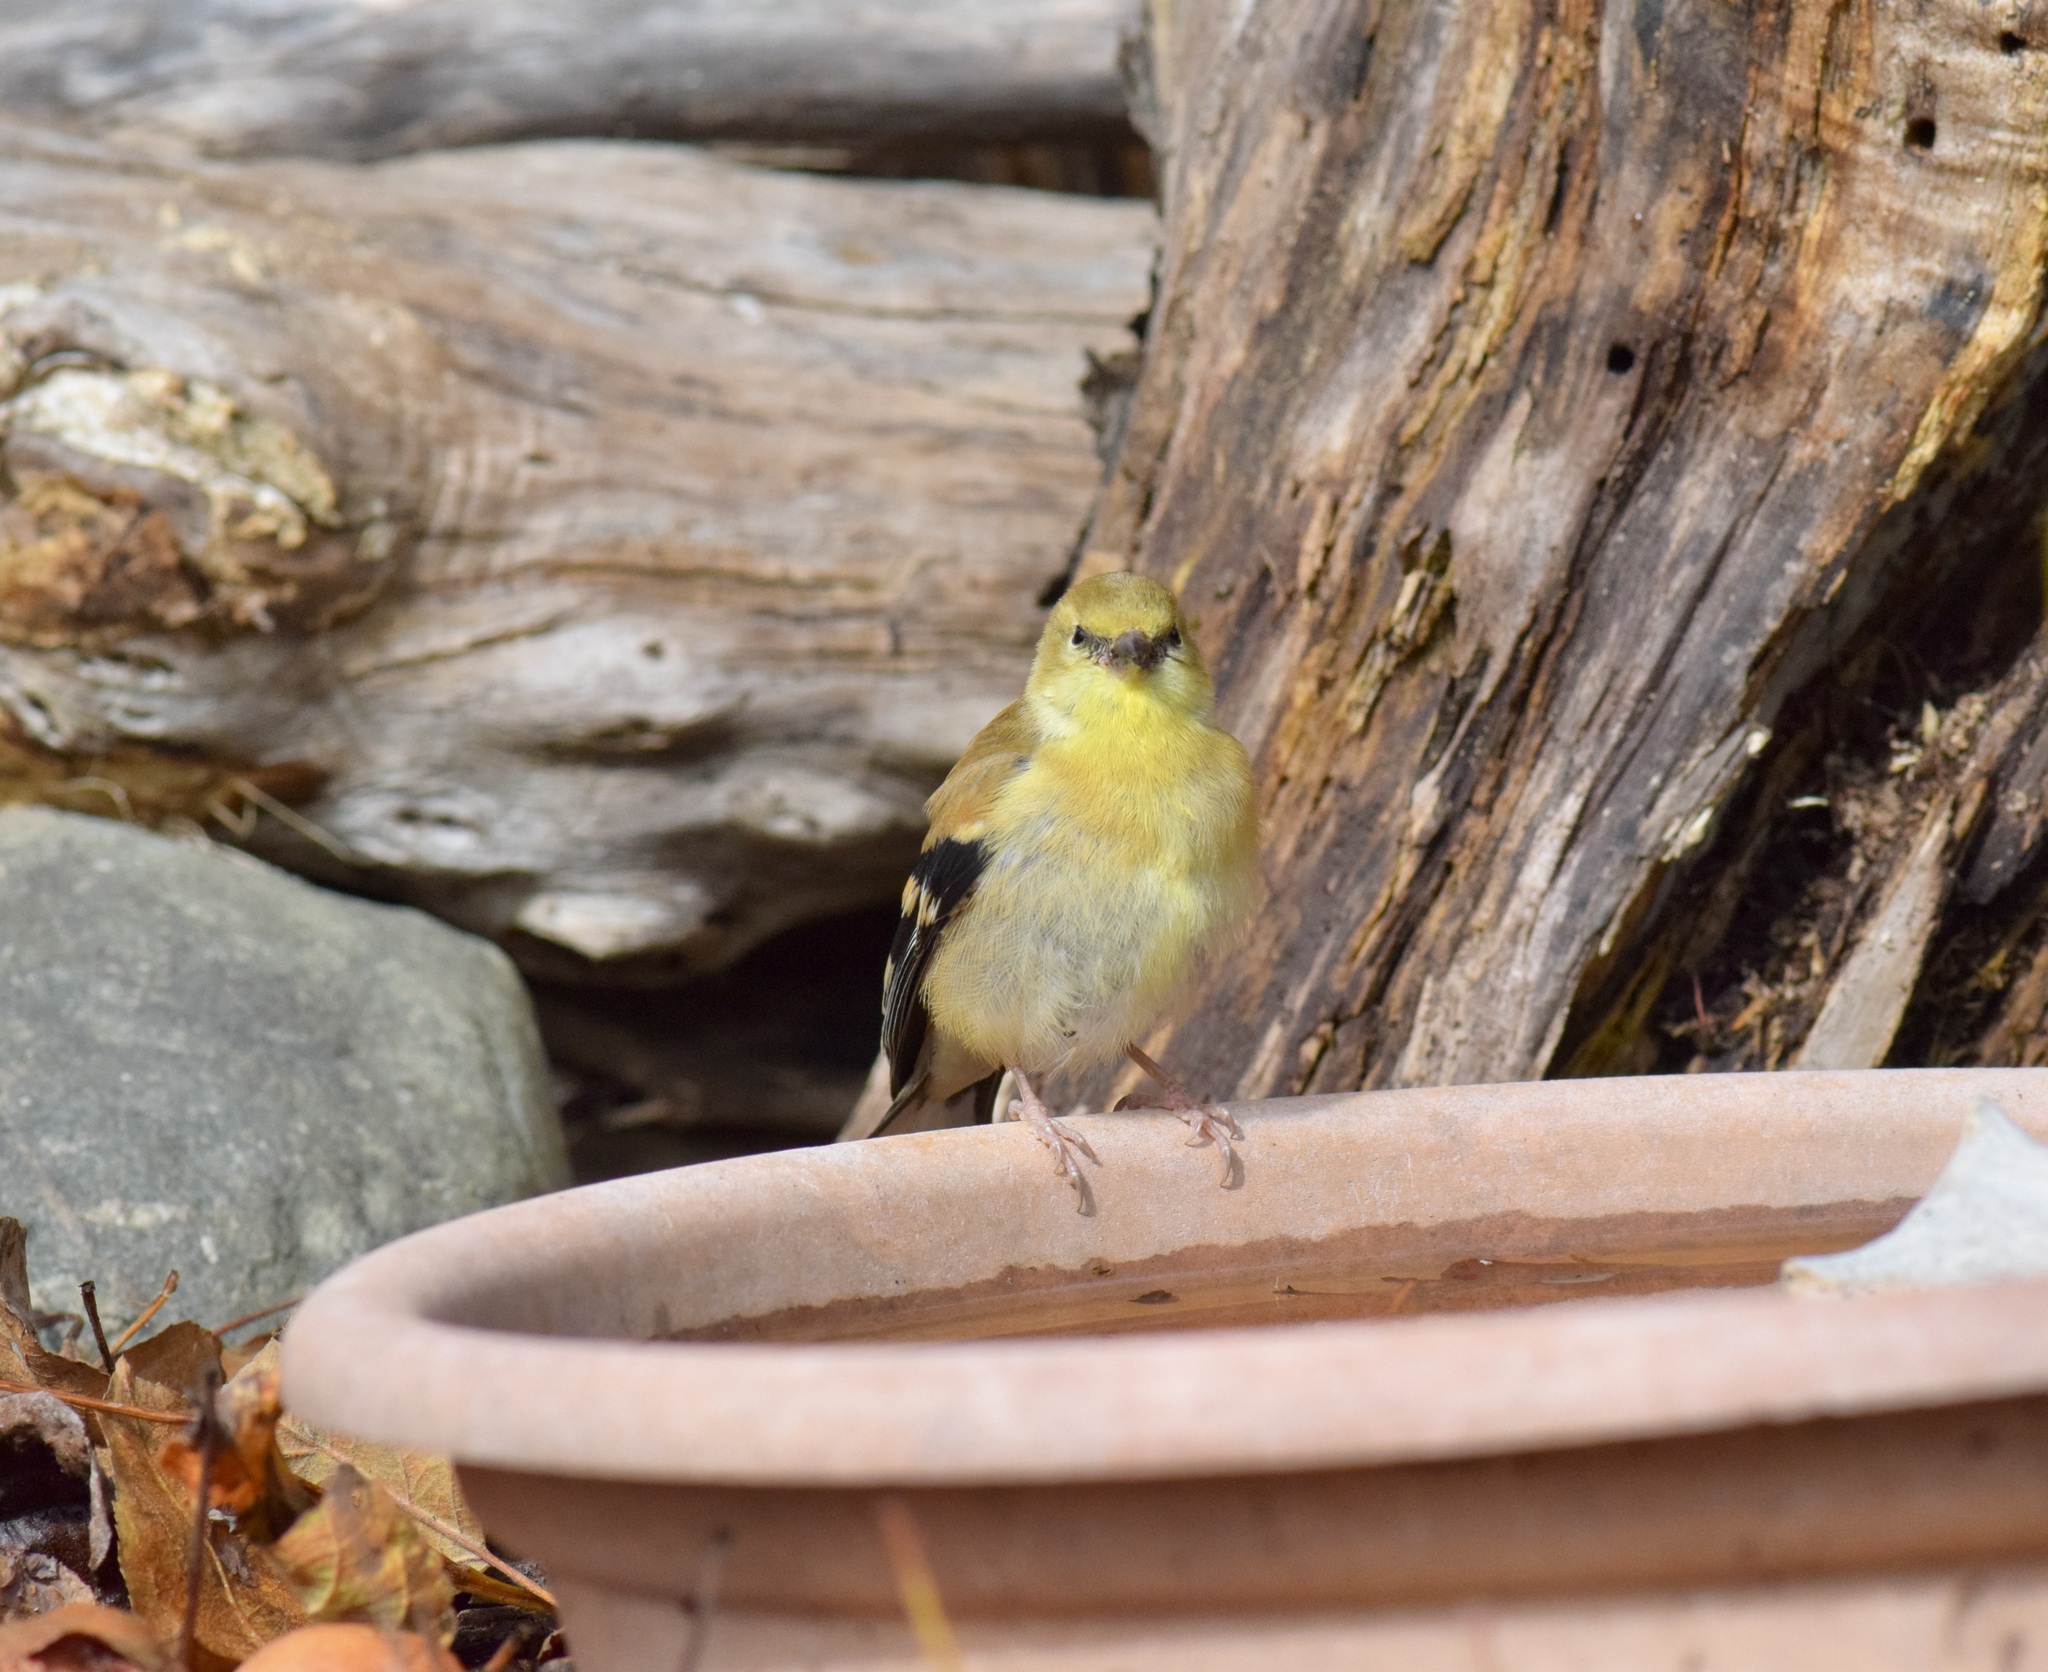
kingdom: Animalia
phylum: Chordata
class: Aves
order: Passeriformes
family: Fringillidae
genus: Spinus
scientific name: Spinus tristis
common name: American goldfinch
